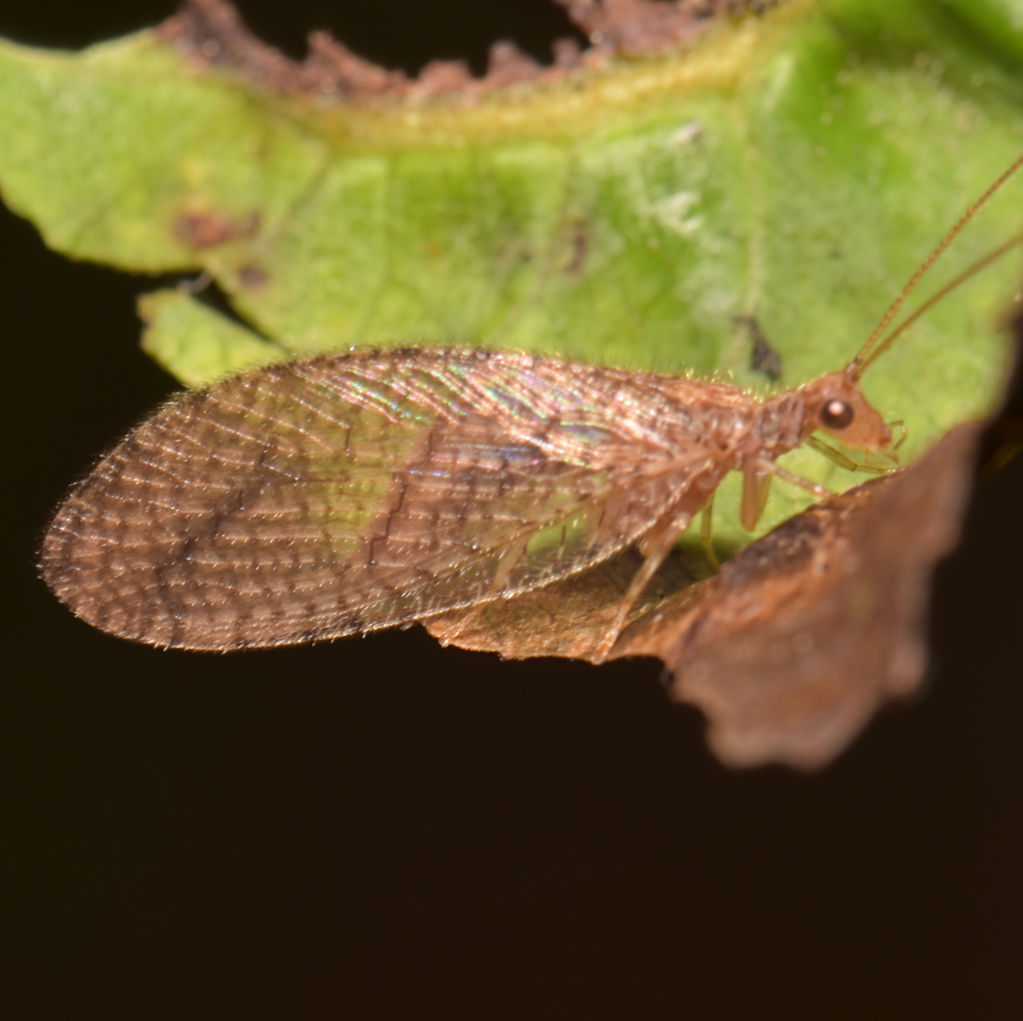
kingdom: Animalia
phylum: Arthropoda
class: Insecta
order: Neuroptera
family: Hemerobiidae
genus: Micromus
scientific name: Micromus posticus
